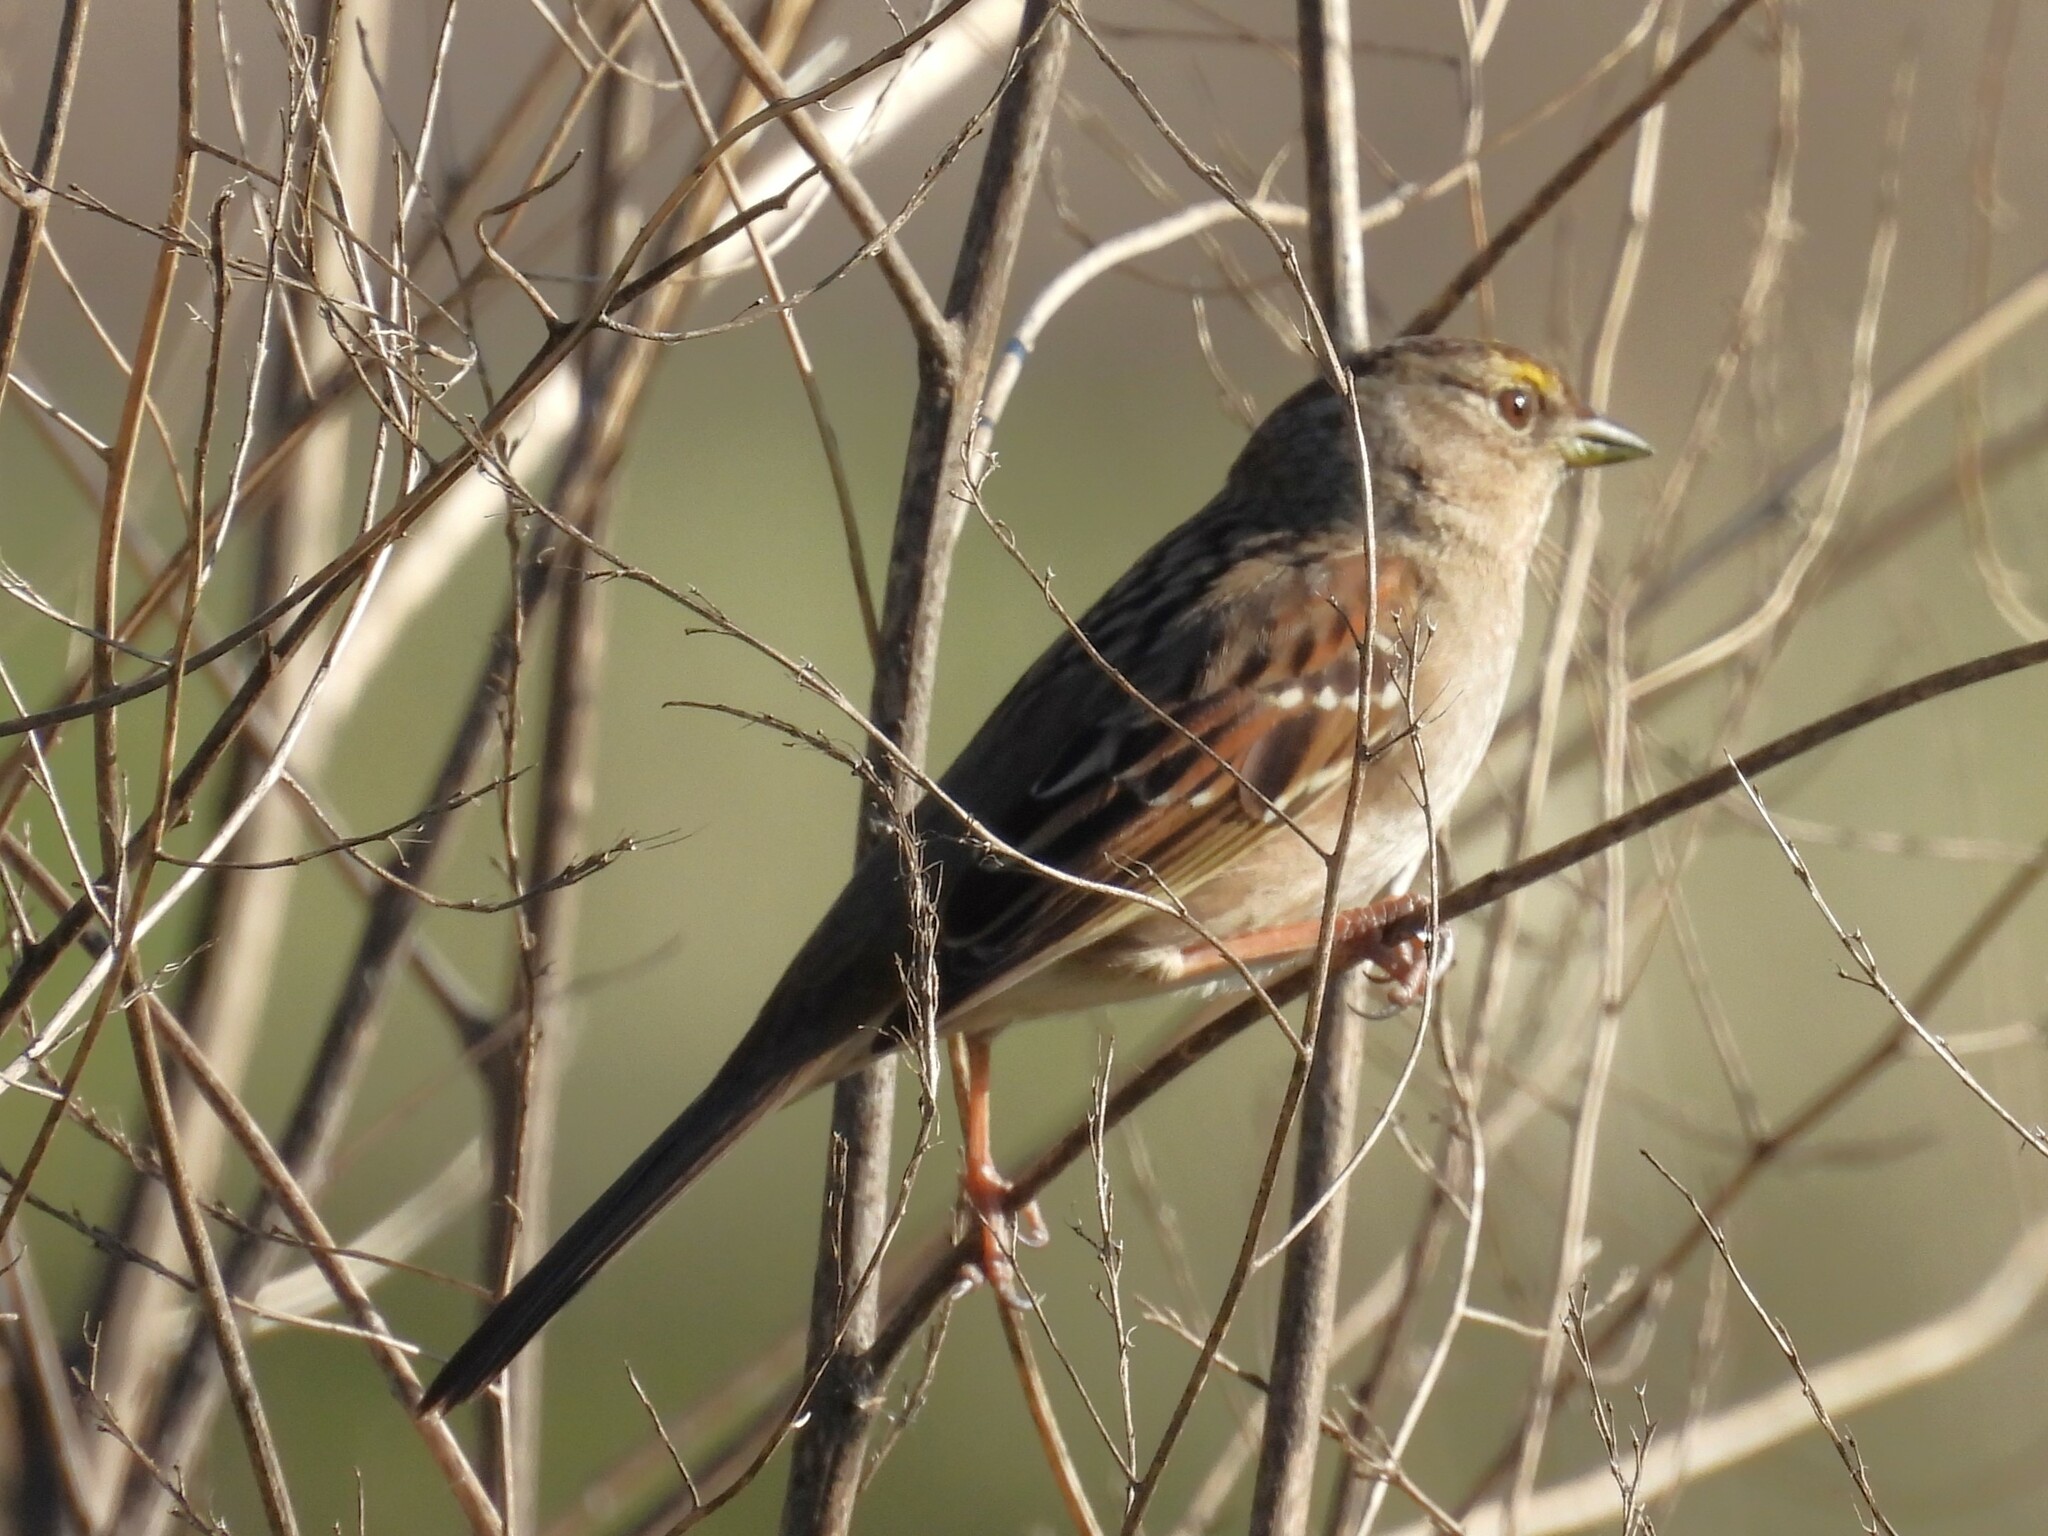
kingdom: Animalia
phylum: Chordata
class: Aves
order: Passeriformes
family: Passerellidae
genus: Zonotrichia
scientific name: Zonotrichia atricapilla
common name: Golden-crowned sparrow
